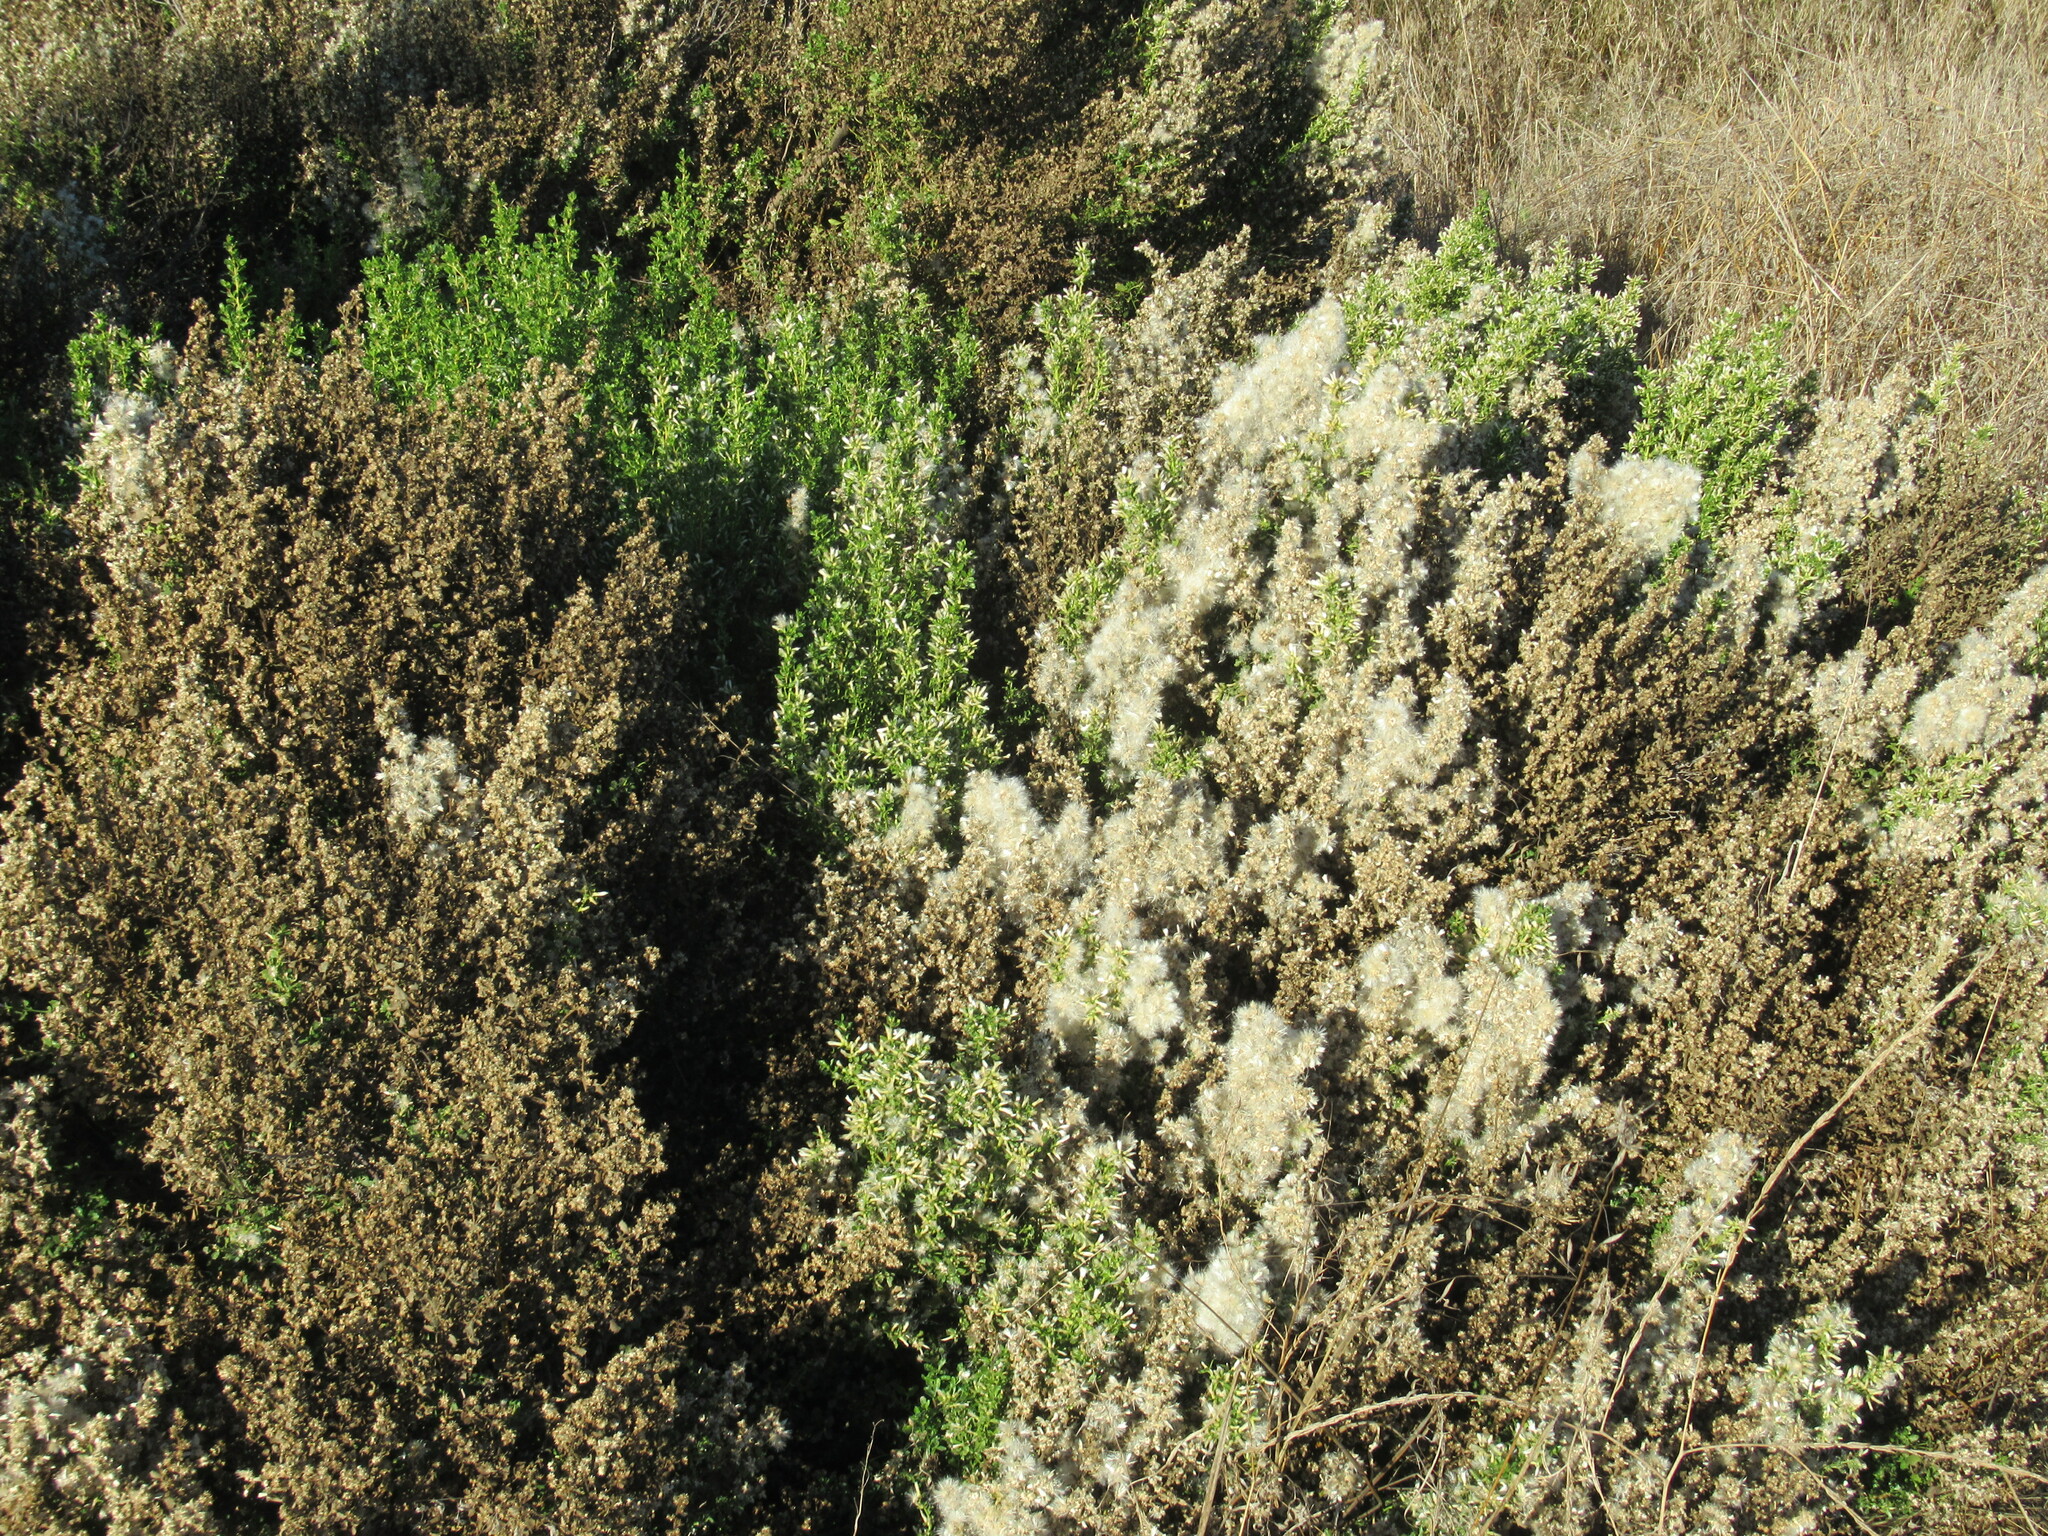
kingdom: Plantae
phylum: Tracheophyta
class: Magnoliopsida
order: Asterales
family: Asteraceae
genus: Baccharis
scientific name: Baccharis pilularis
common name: Coyotebrush
